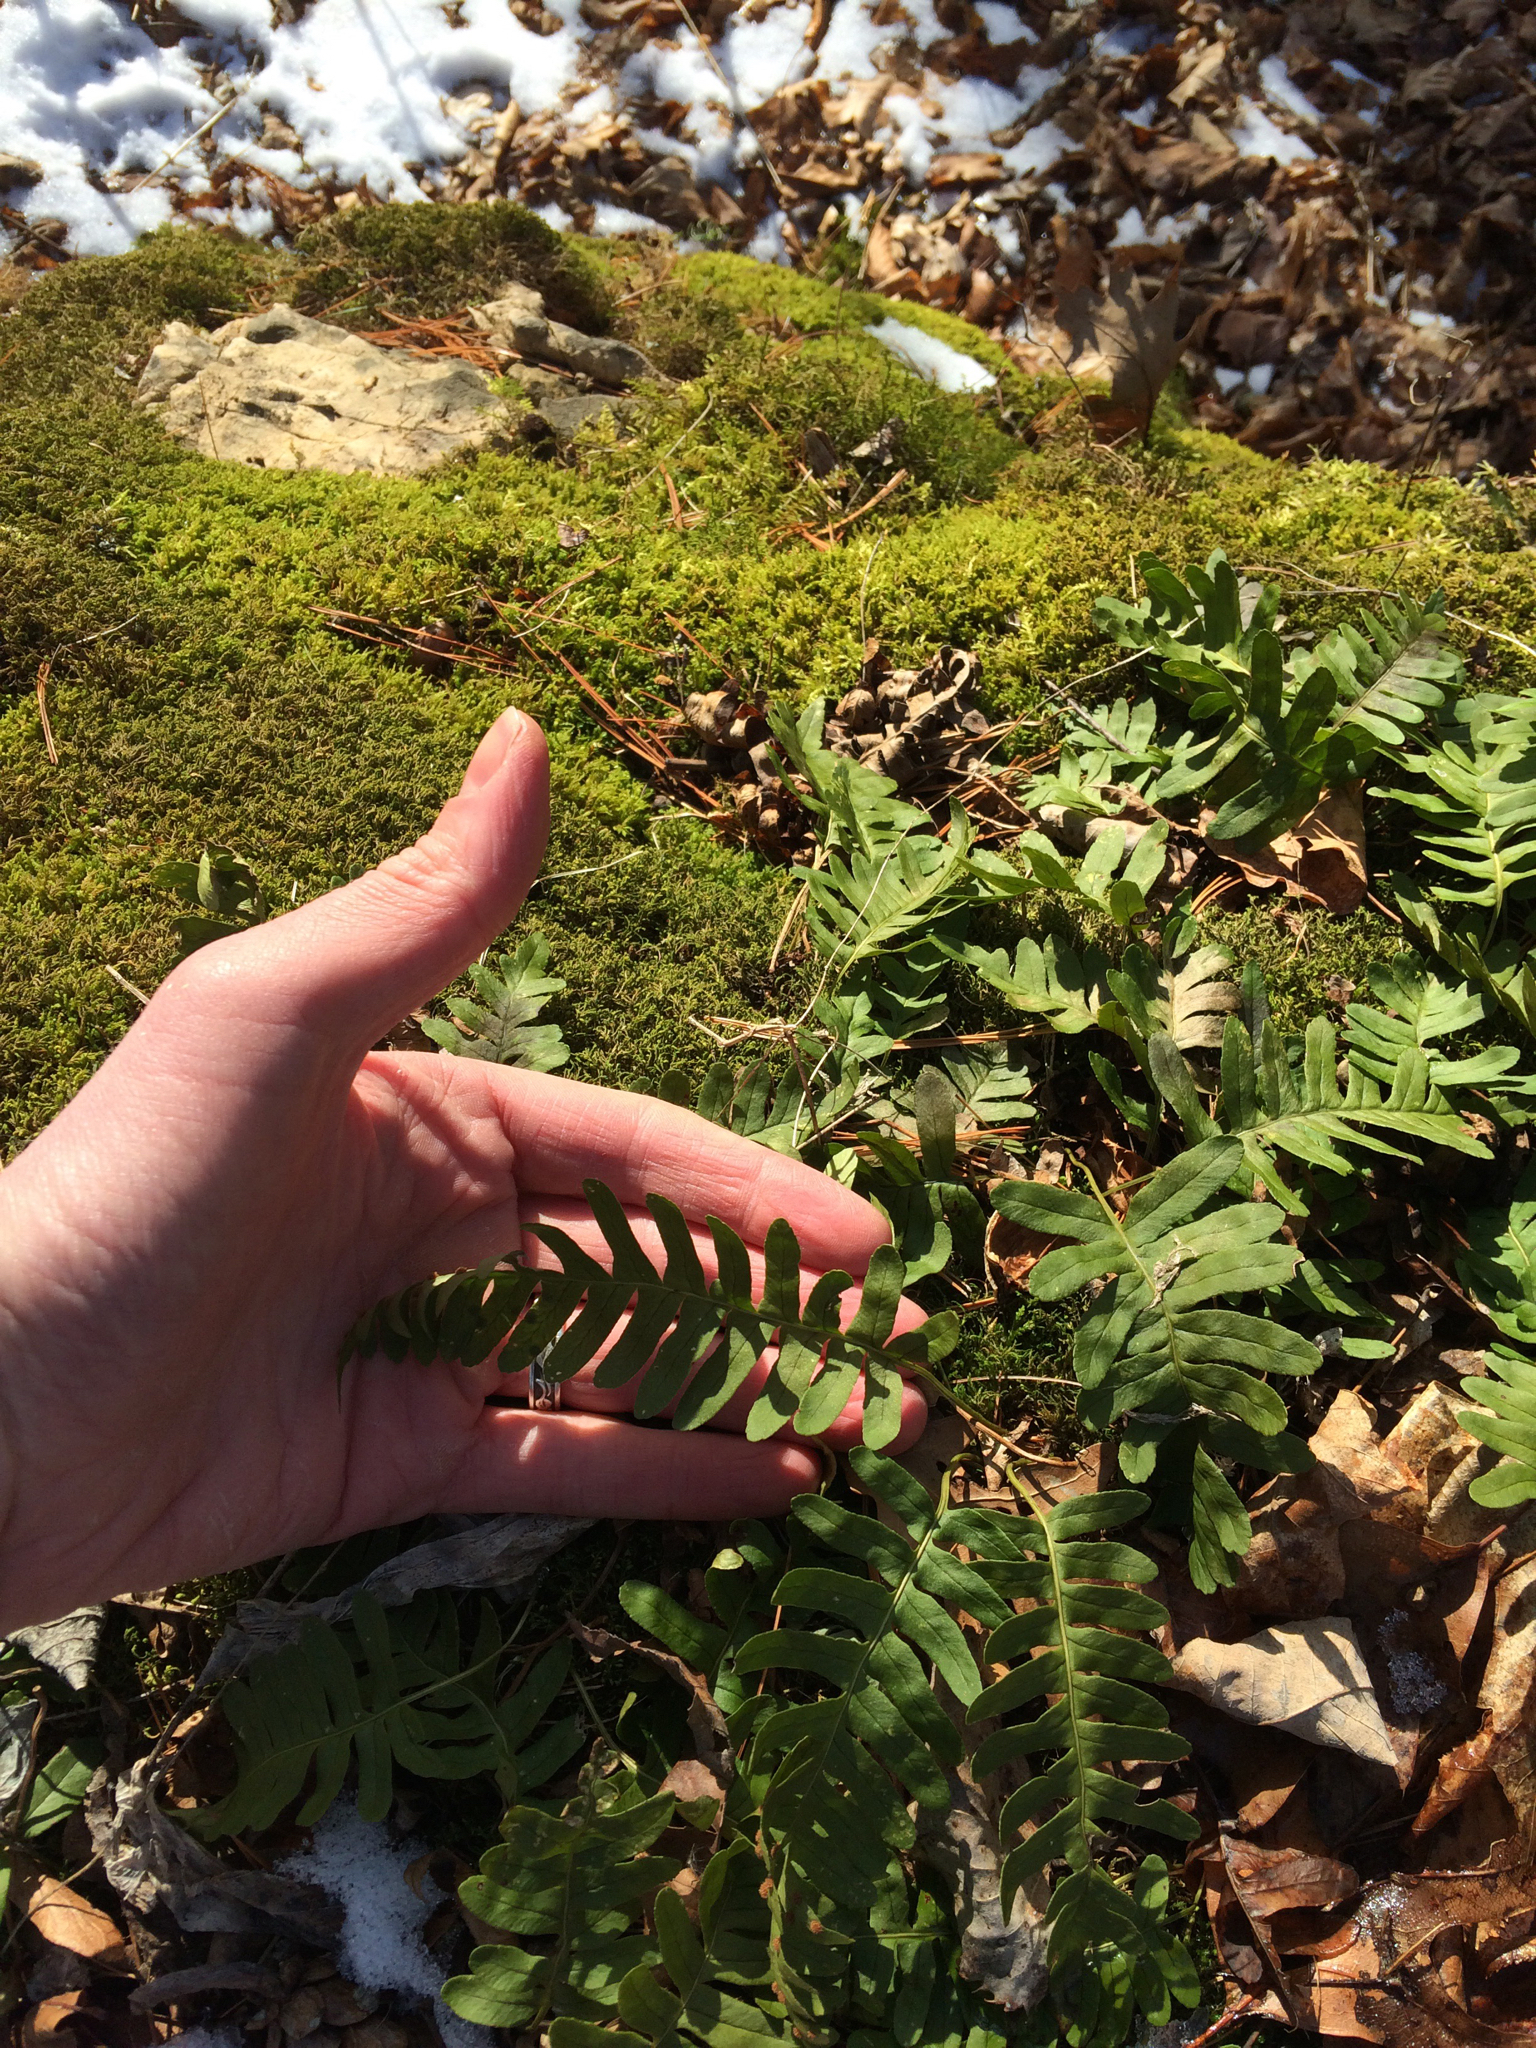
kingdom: Plantae
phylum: Tracheophyta
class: Polypodiopsida
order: Polypodiales
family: Polypodiaceae
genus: Polypodium
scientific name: Polypodium virginianum
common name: American wall fern
